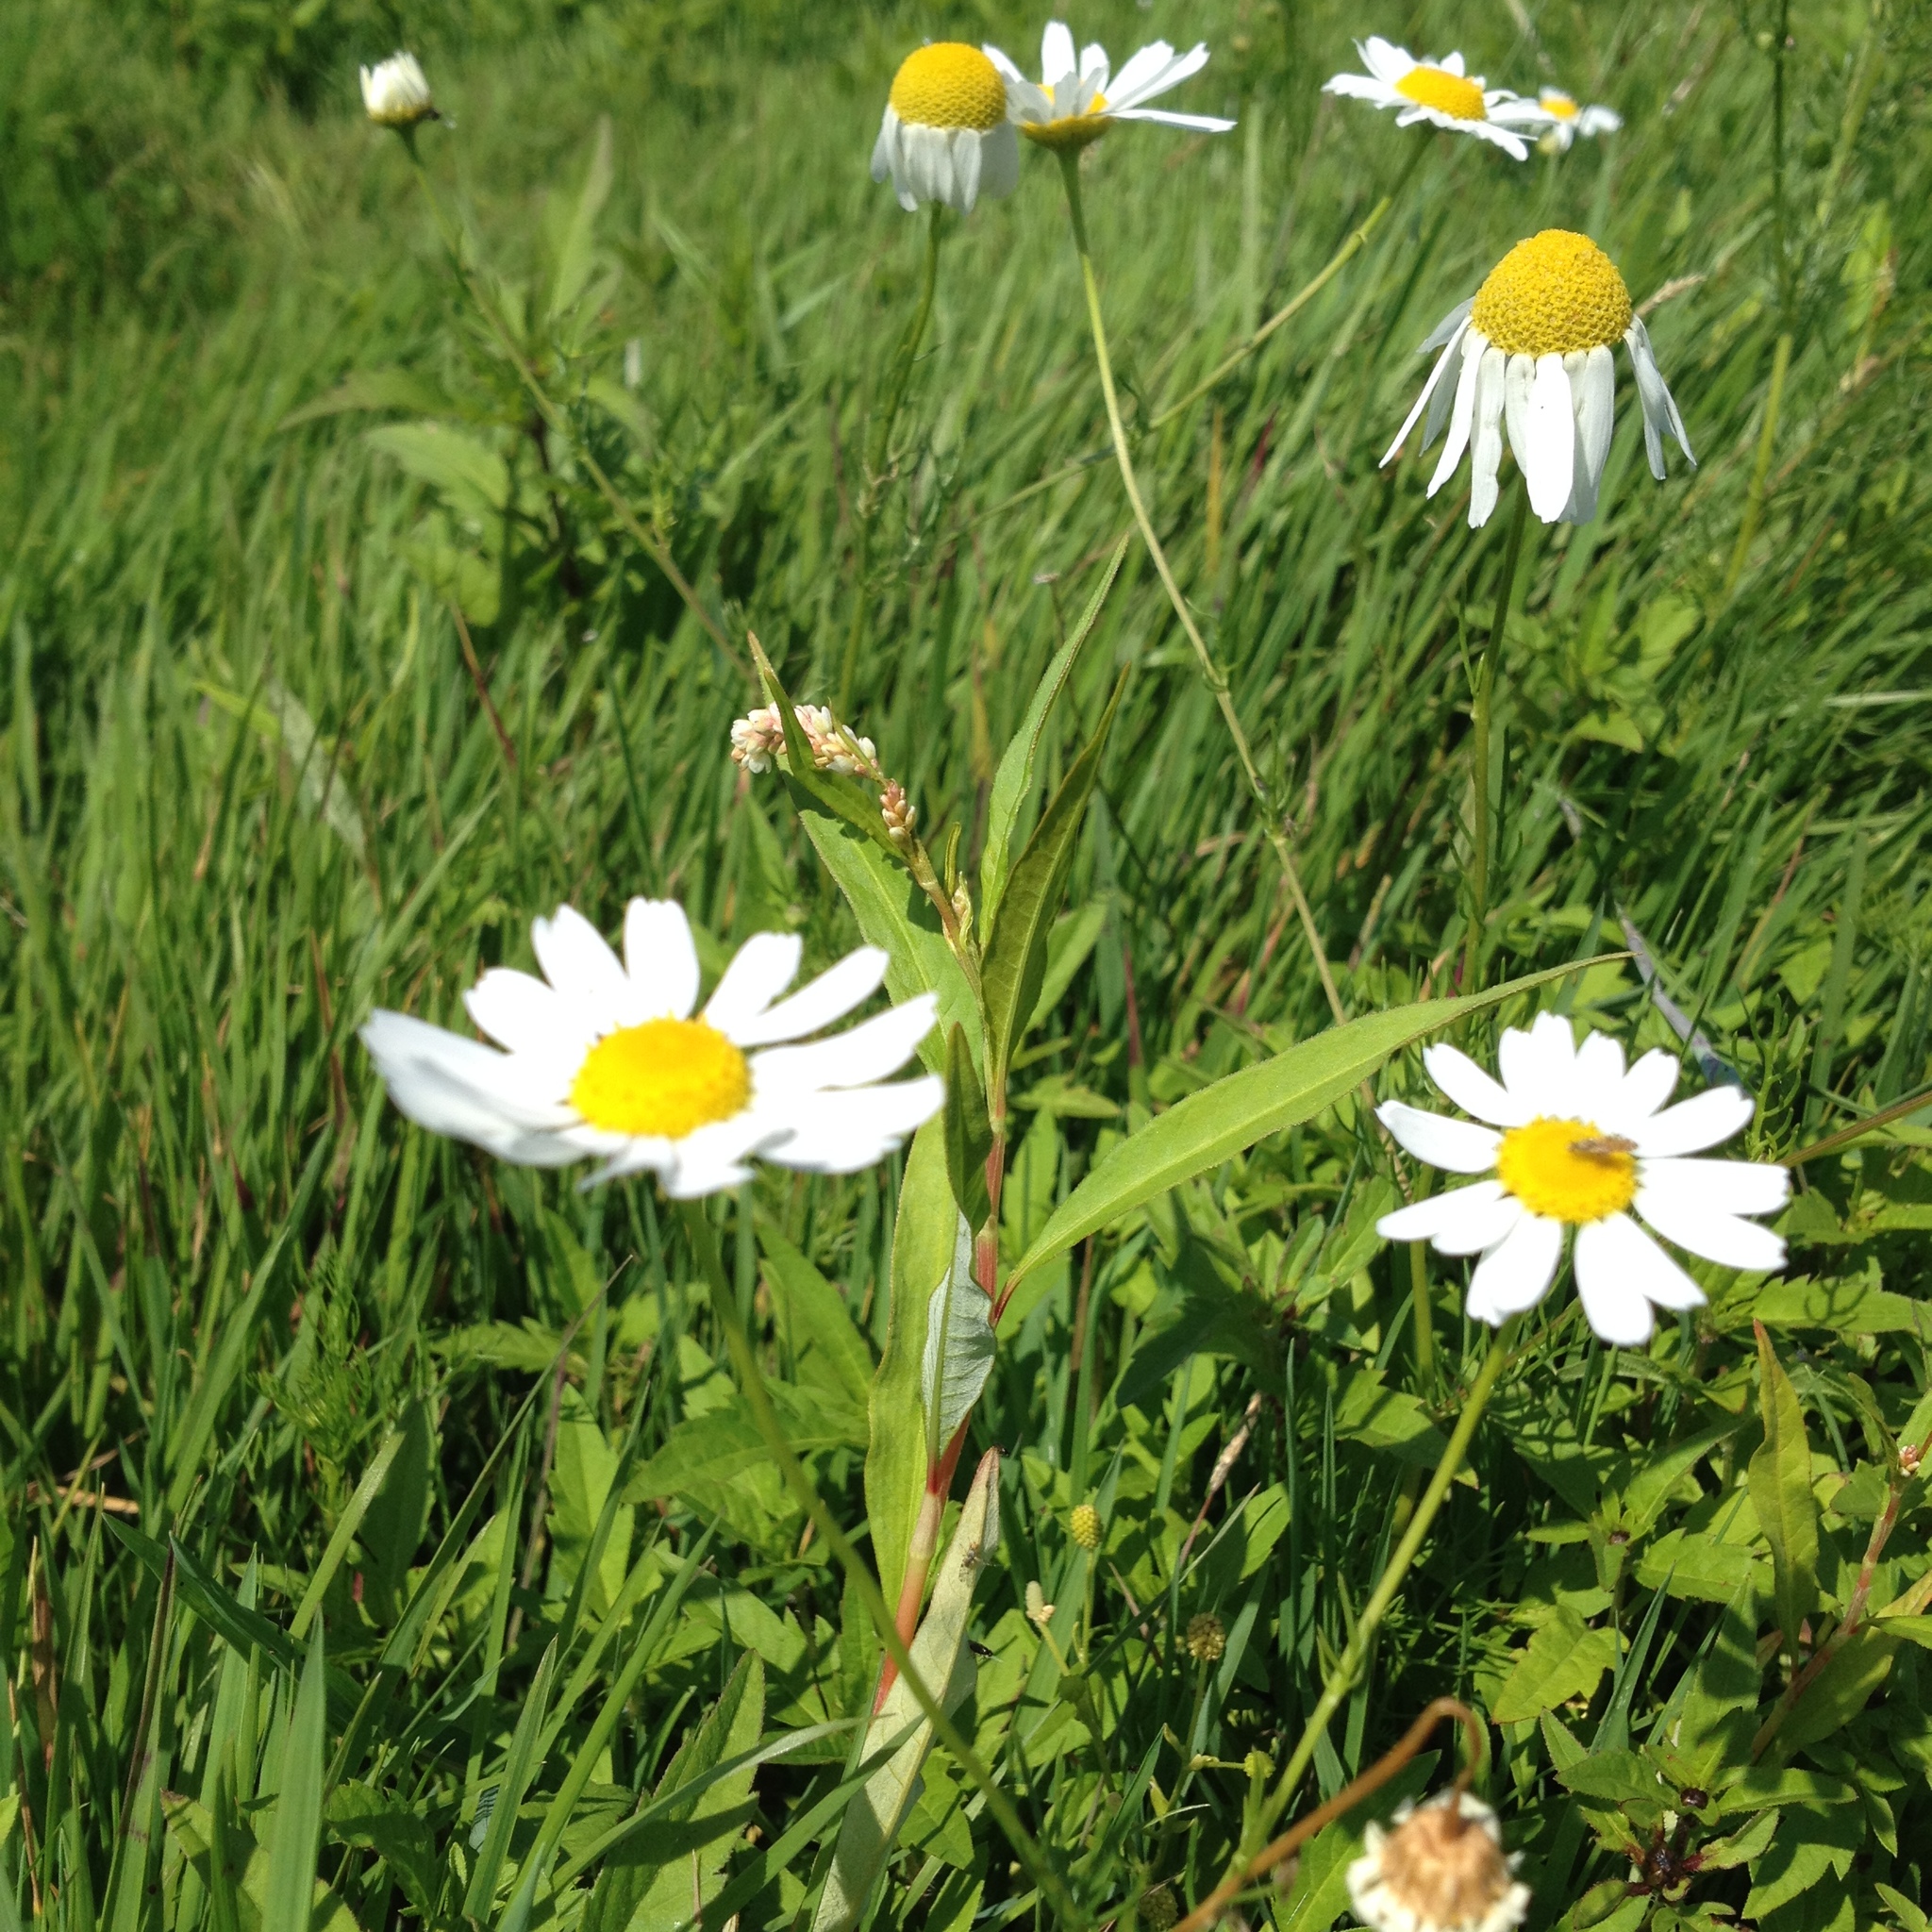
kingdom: Plantae
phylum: Tracheophyta
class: Magnoliopsida
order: Asterales
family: Asteraceae
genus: Tripleurospermum
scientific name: Tripleurospermum inodorum
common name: Scentless mayweed
